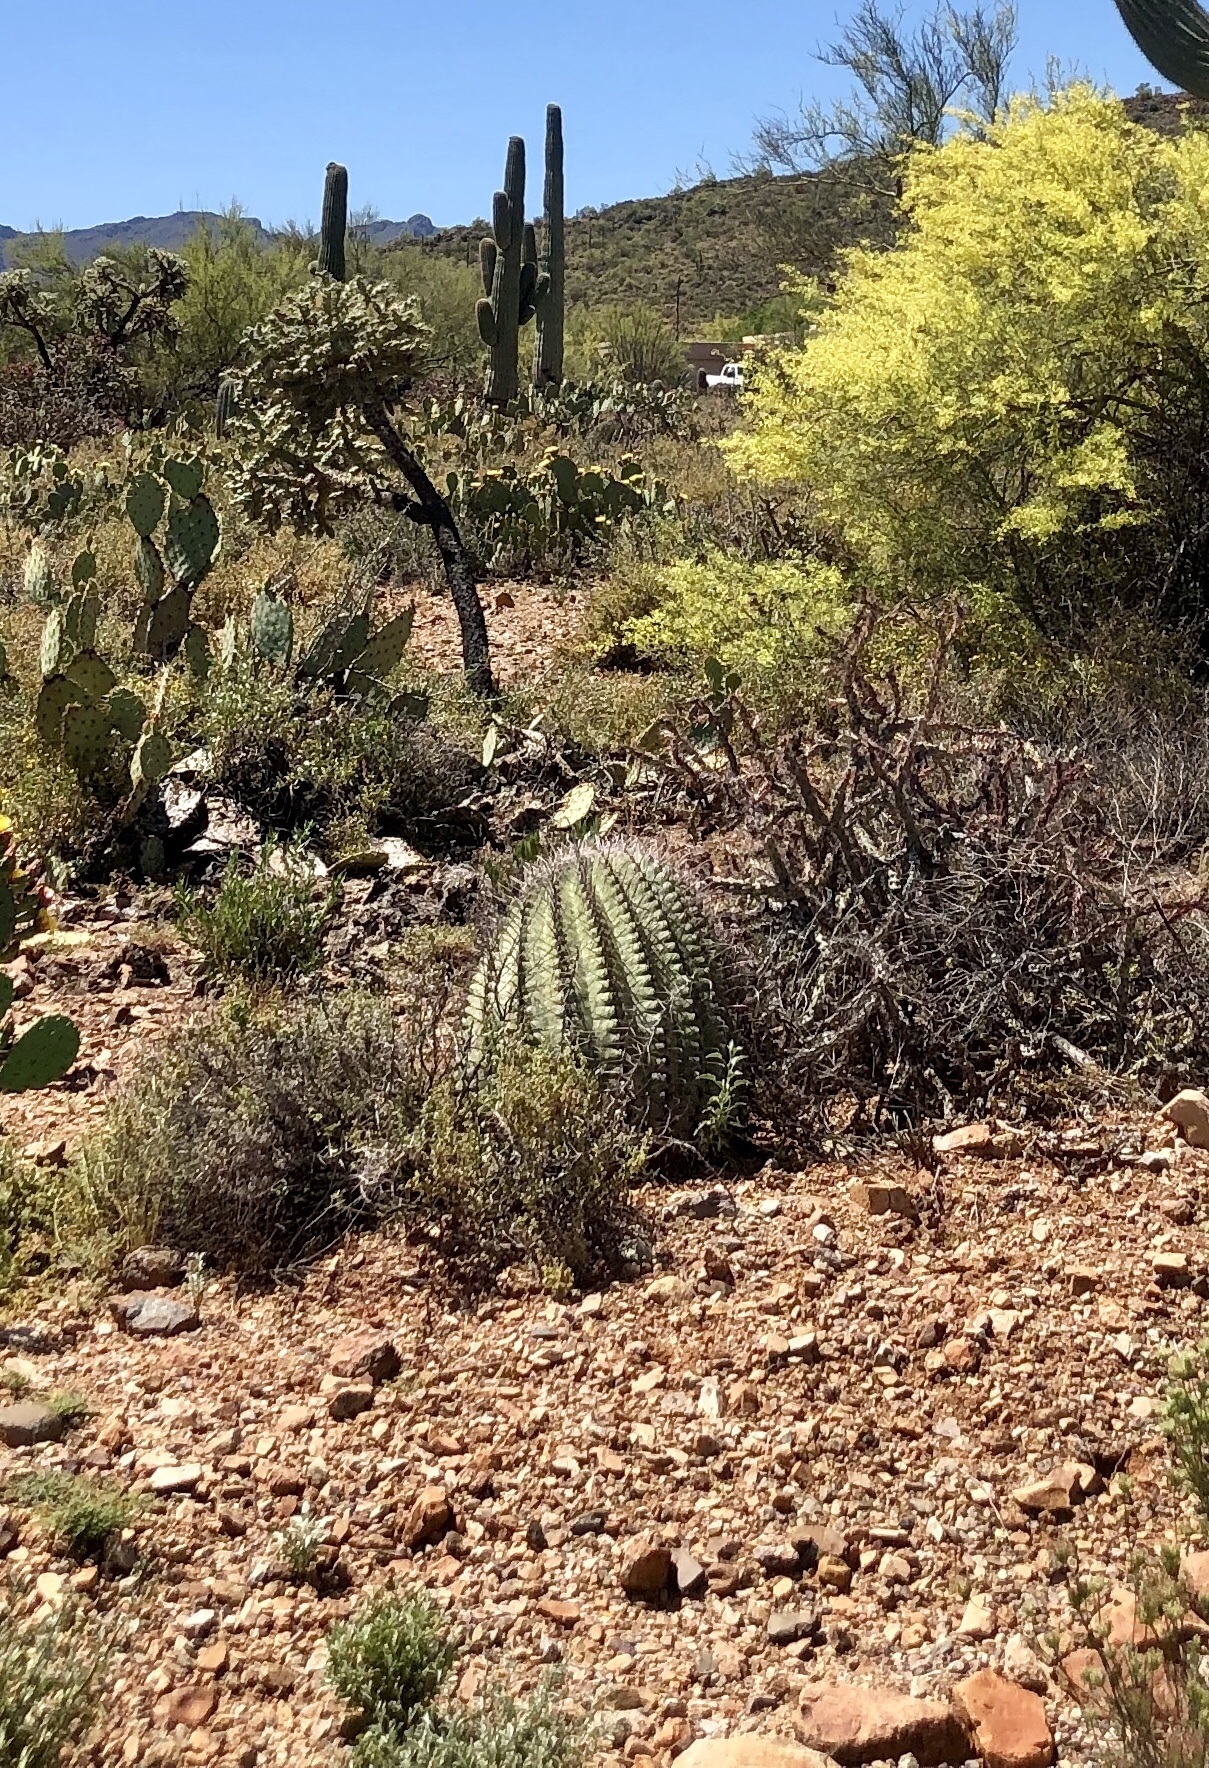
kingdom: Plantae
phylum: Tracheophyta
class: Magnoliopsida
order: Caryophyllales
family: Cactaceae
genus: Ferocactus
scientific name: Ferocactus wislizeni
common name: Candy barrel cactus
